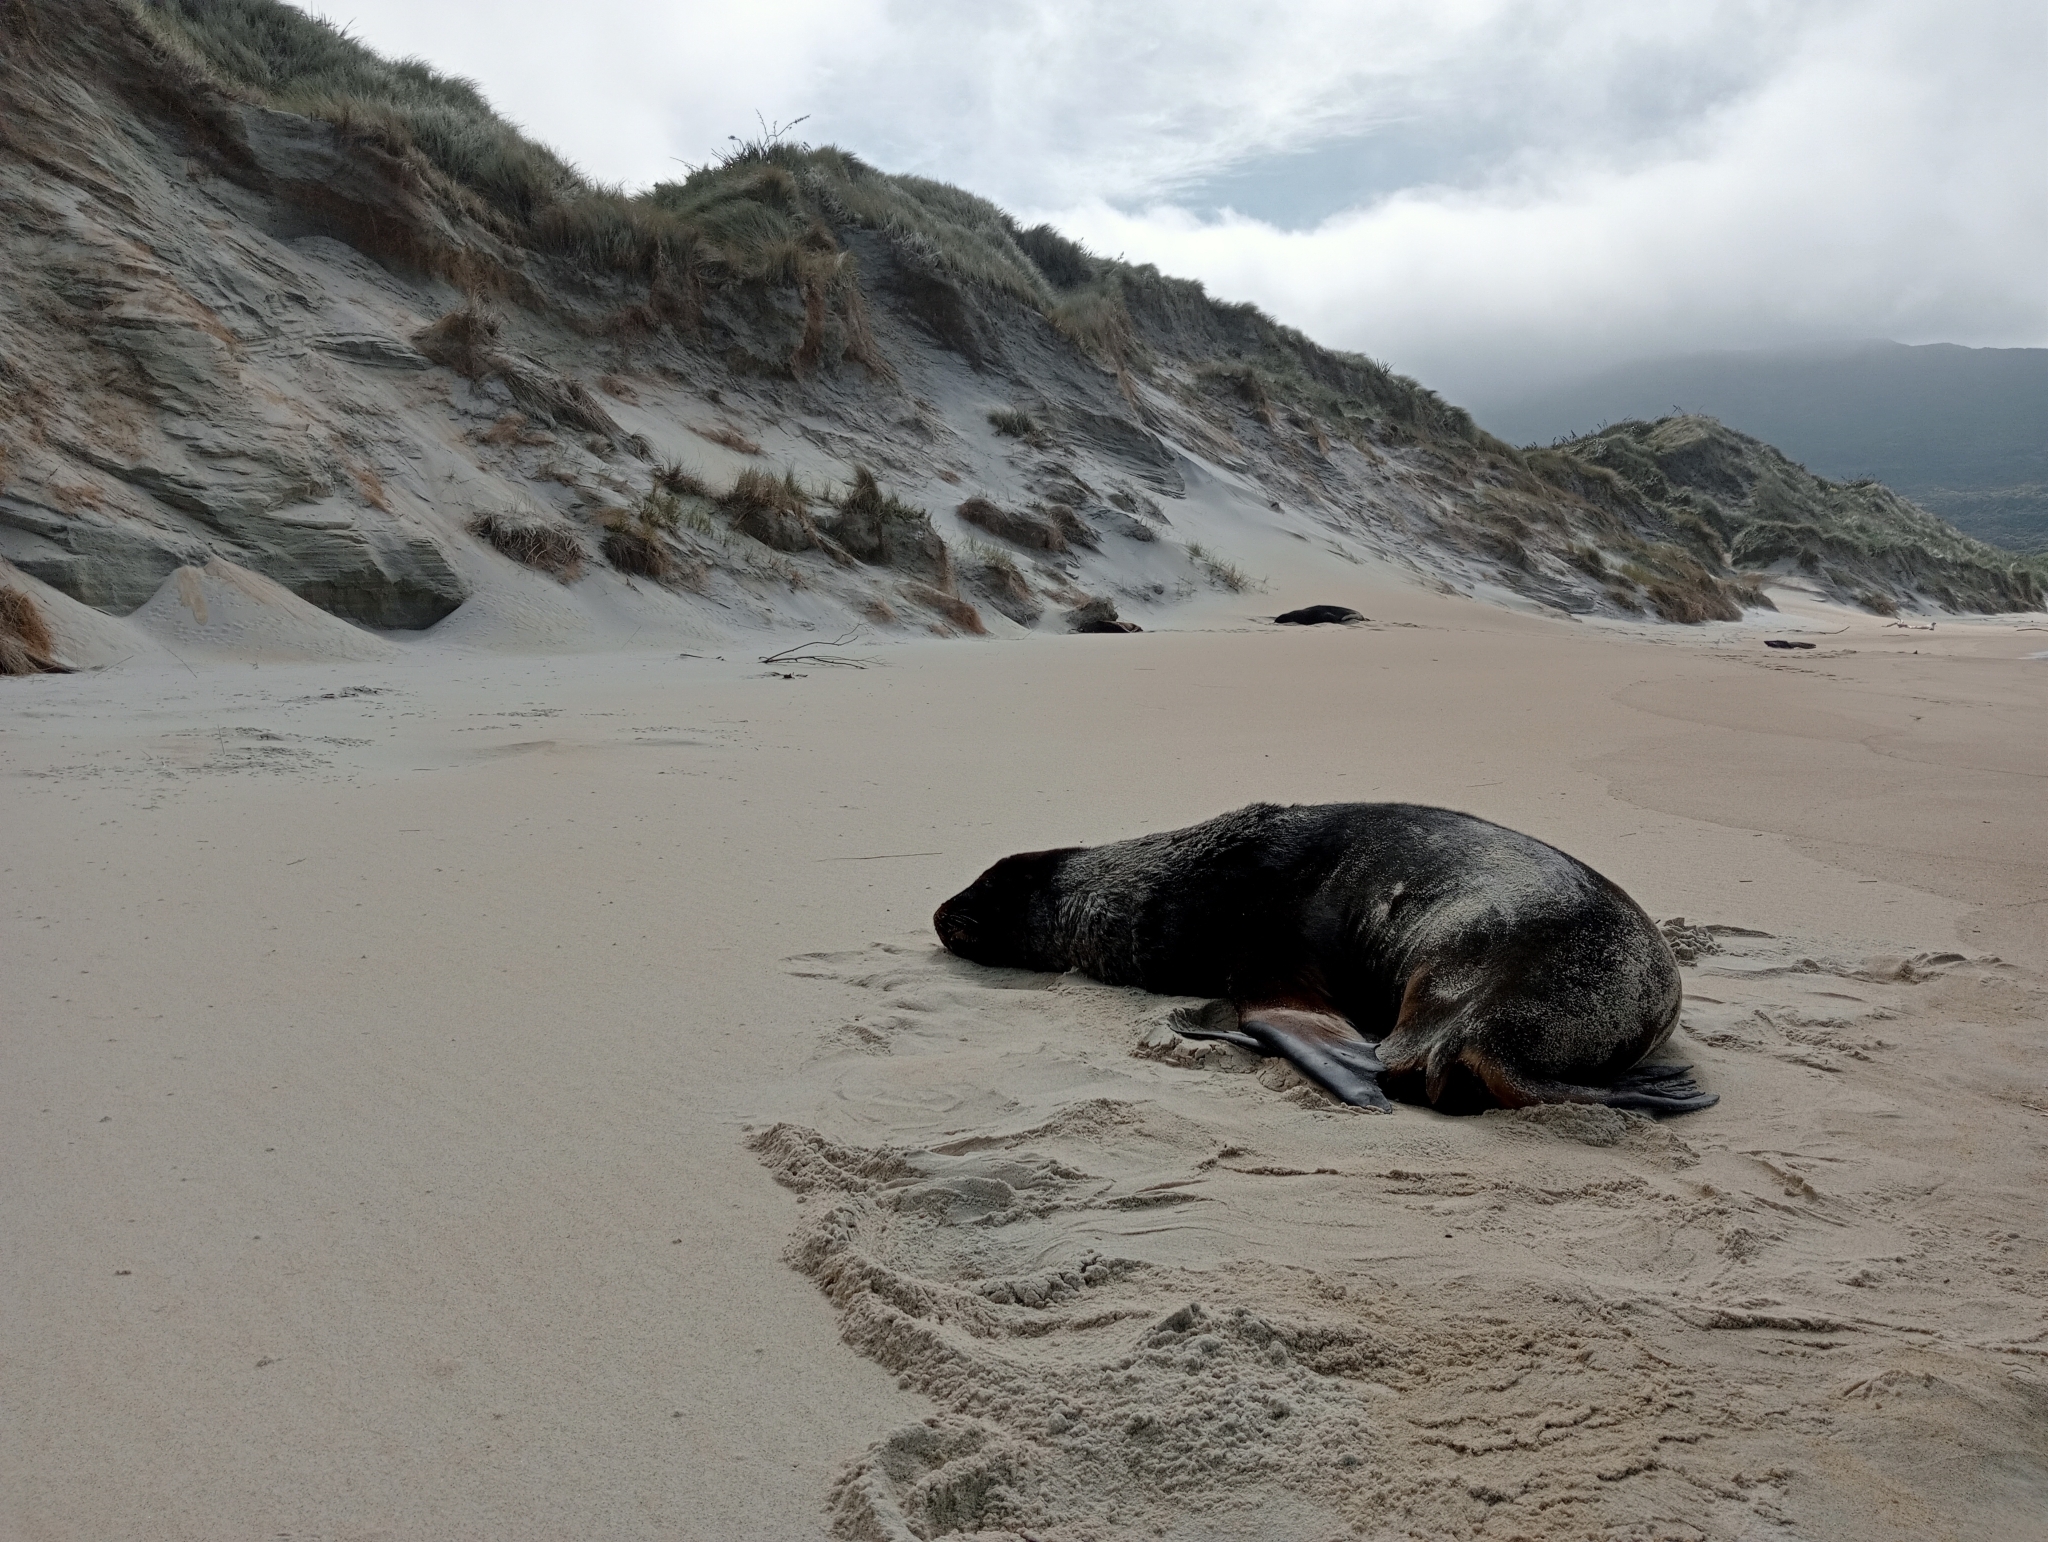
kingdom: Animalia
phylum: Chordata
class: Mammalia
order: Carnivora
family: Otariidae
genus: Phocarctos
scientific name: Phocarctos hookeri
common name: New zealand sea lion
